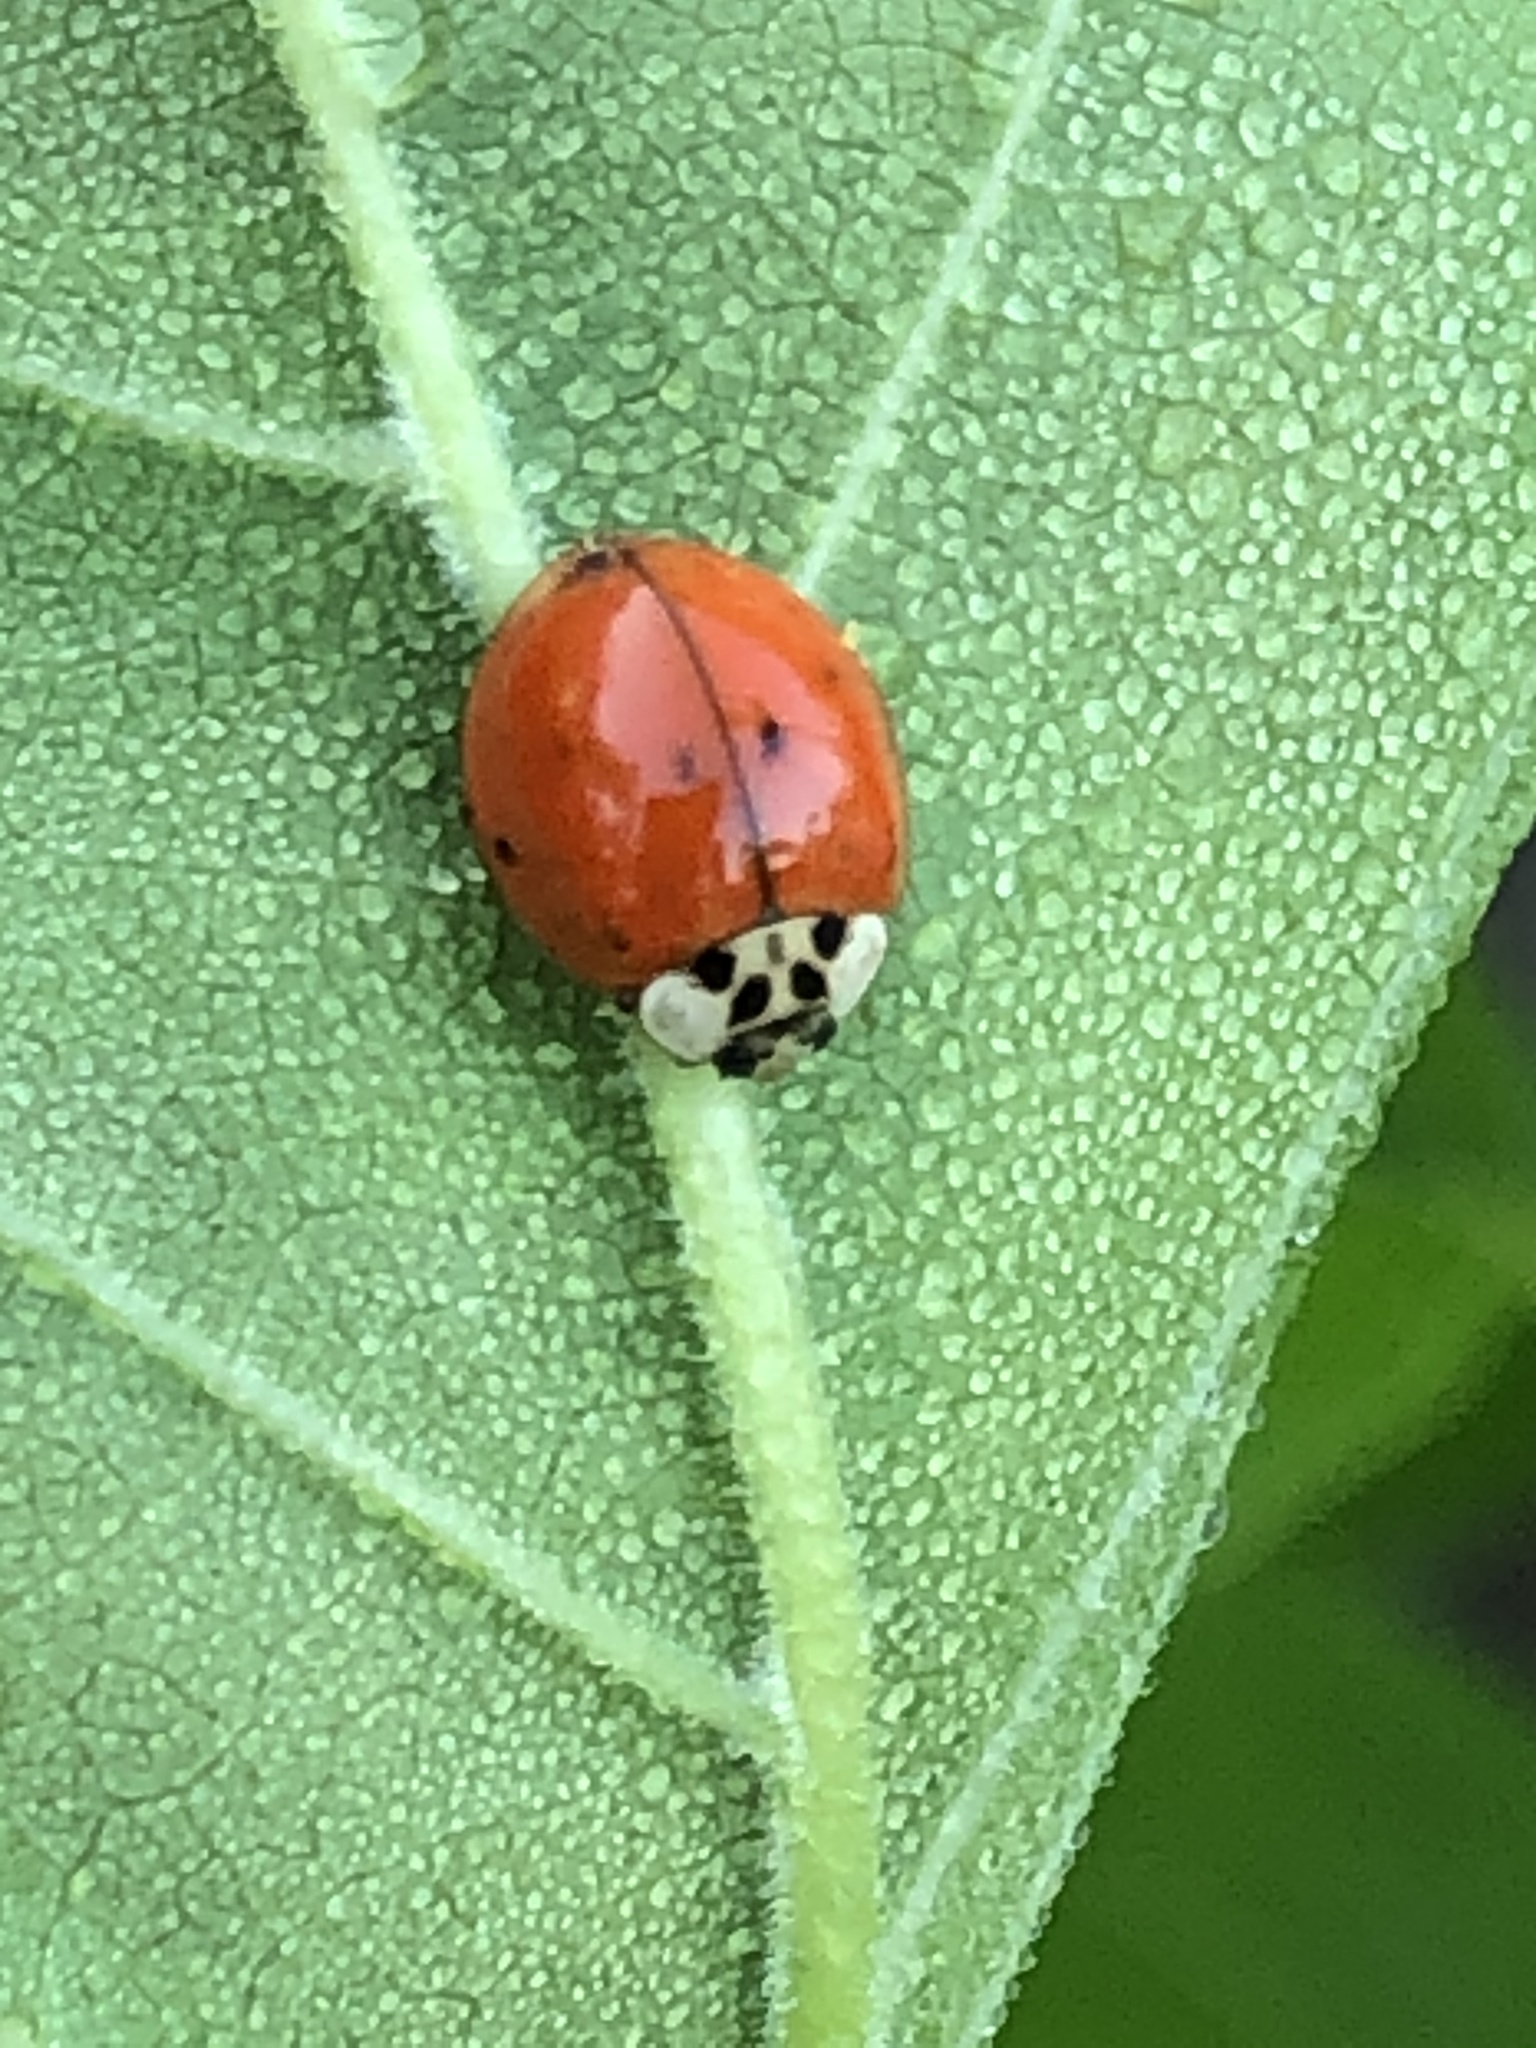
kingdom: Animalia
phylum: Arthropoda
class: Insecta
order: Coleoptera
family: Coccinellidae
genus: Harmonia
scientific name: Harmonia axyridis
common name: Harlequin ladybird
